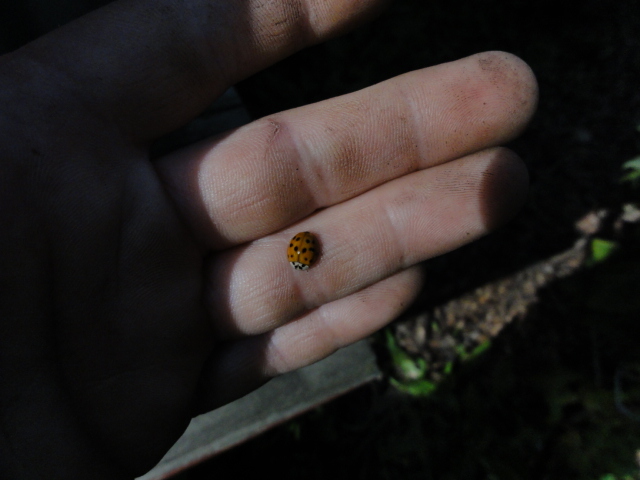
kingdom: Animalia
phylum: Arthropoda
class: Insecta
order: Coleoptera
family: Coccinellidae
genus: Harmonia
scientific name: Harmonia axyridis
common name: Harlequin ladybird
